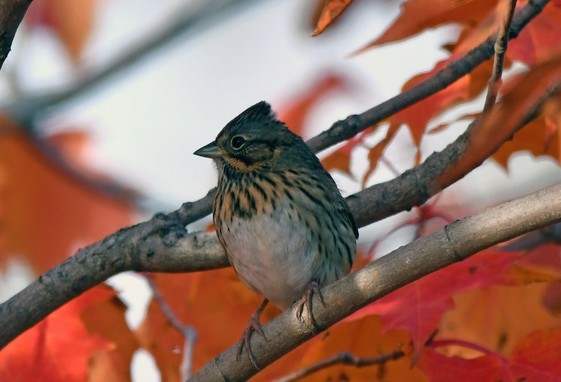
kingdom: Animalia
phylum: Chordata
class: Aves
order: Passeriformes
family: Passerellidae
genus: Melospiza
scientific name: Melospiza lincolnii
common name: Lincoln's sparrow
